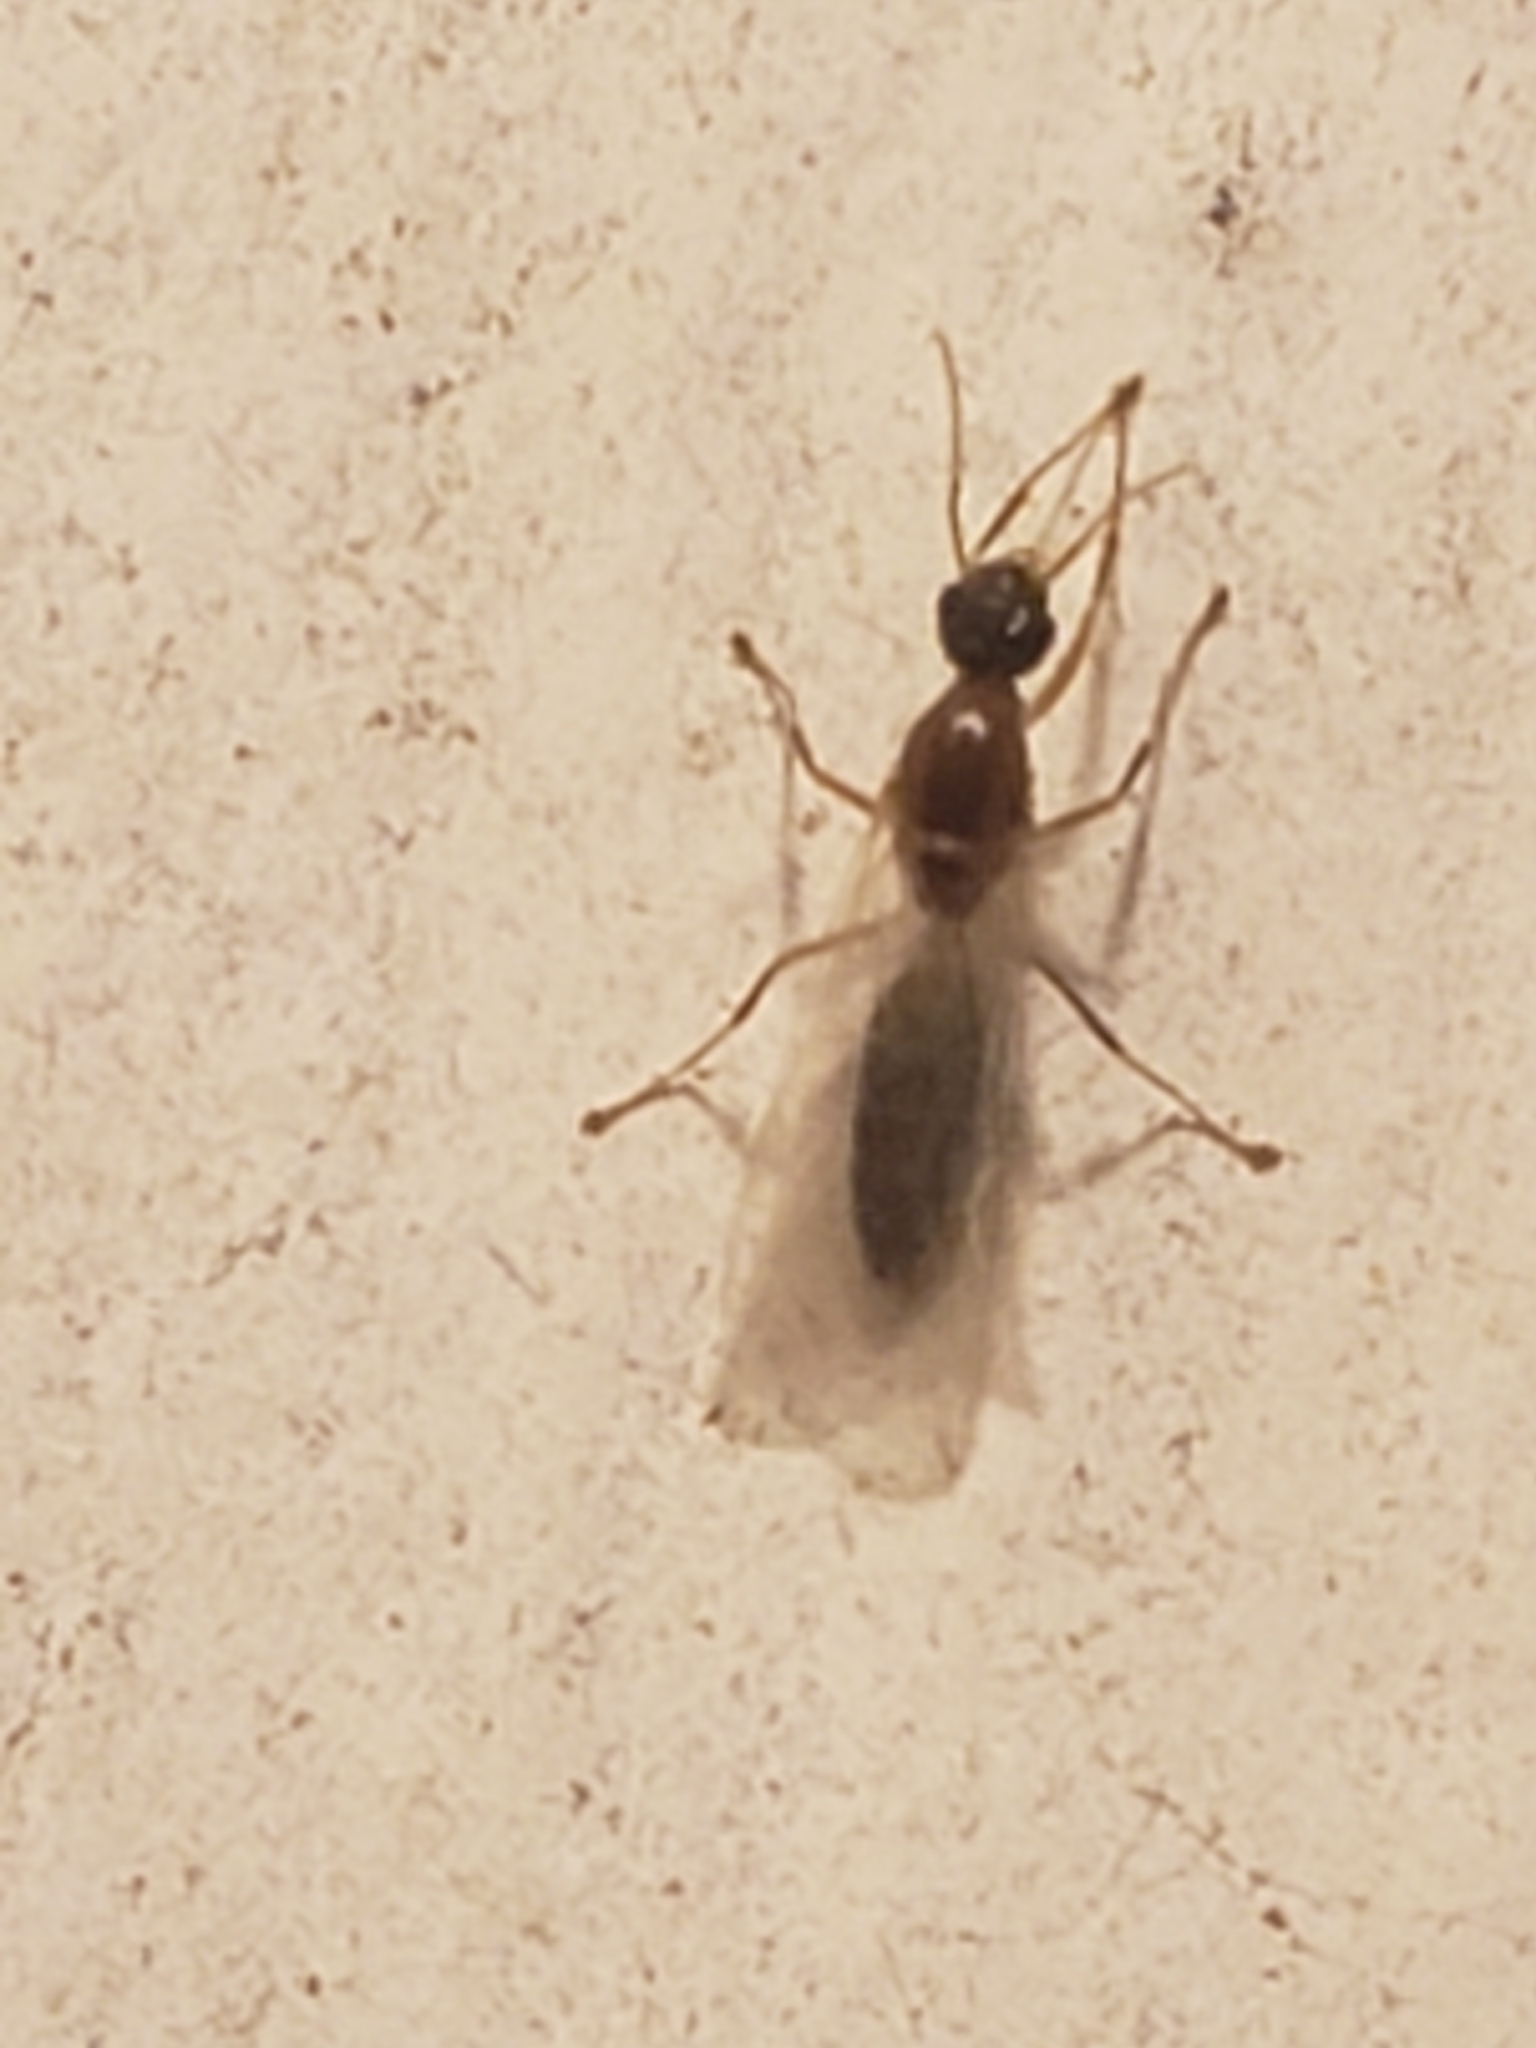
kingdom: Animalia
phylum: Arthropoda
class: Insecta
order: Hymenoptera
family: Formicidae
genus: Colobopsis
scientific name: Colobopsis
